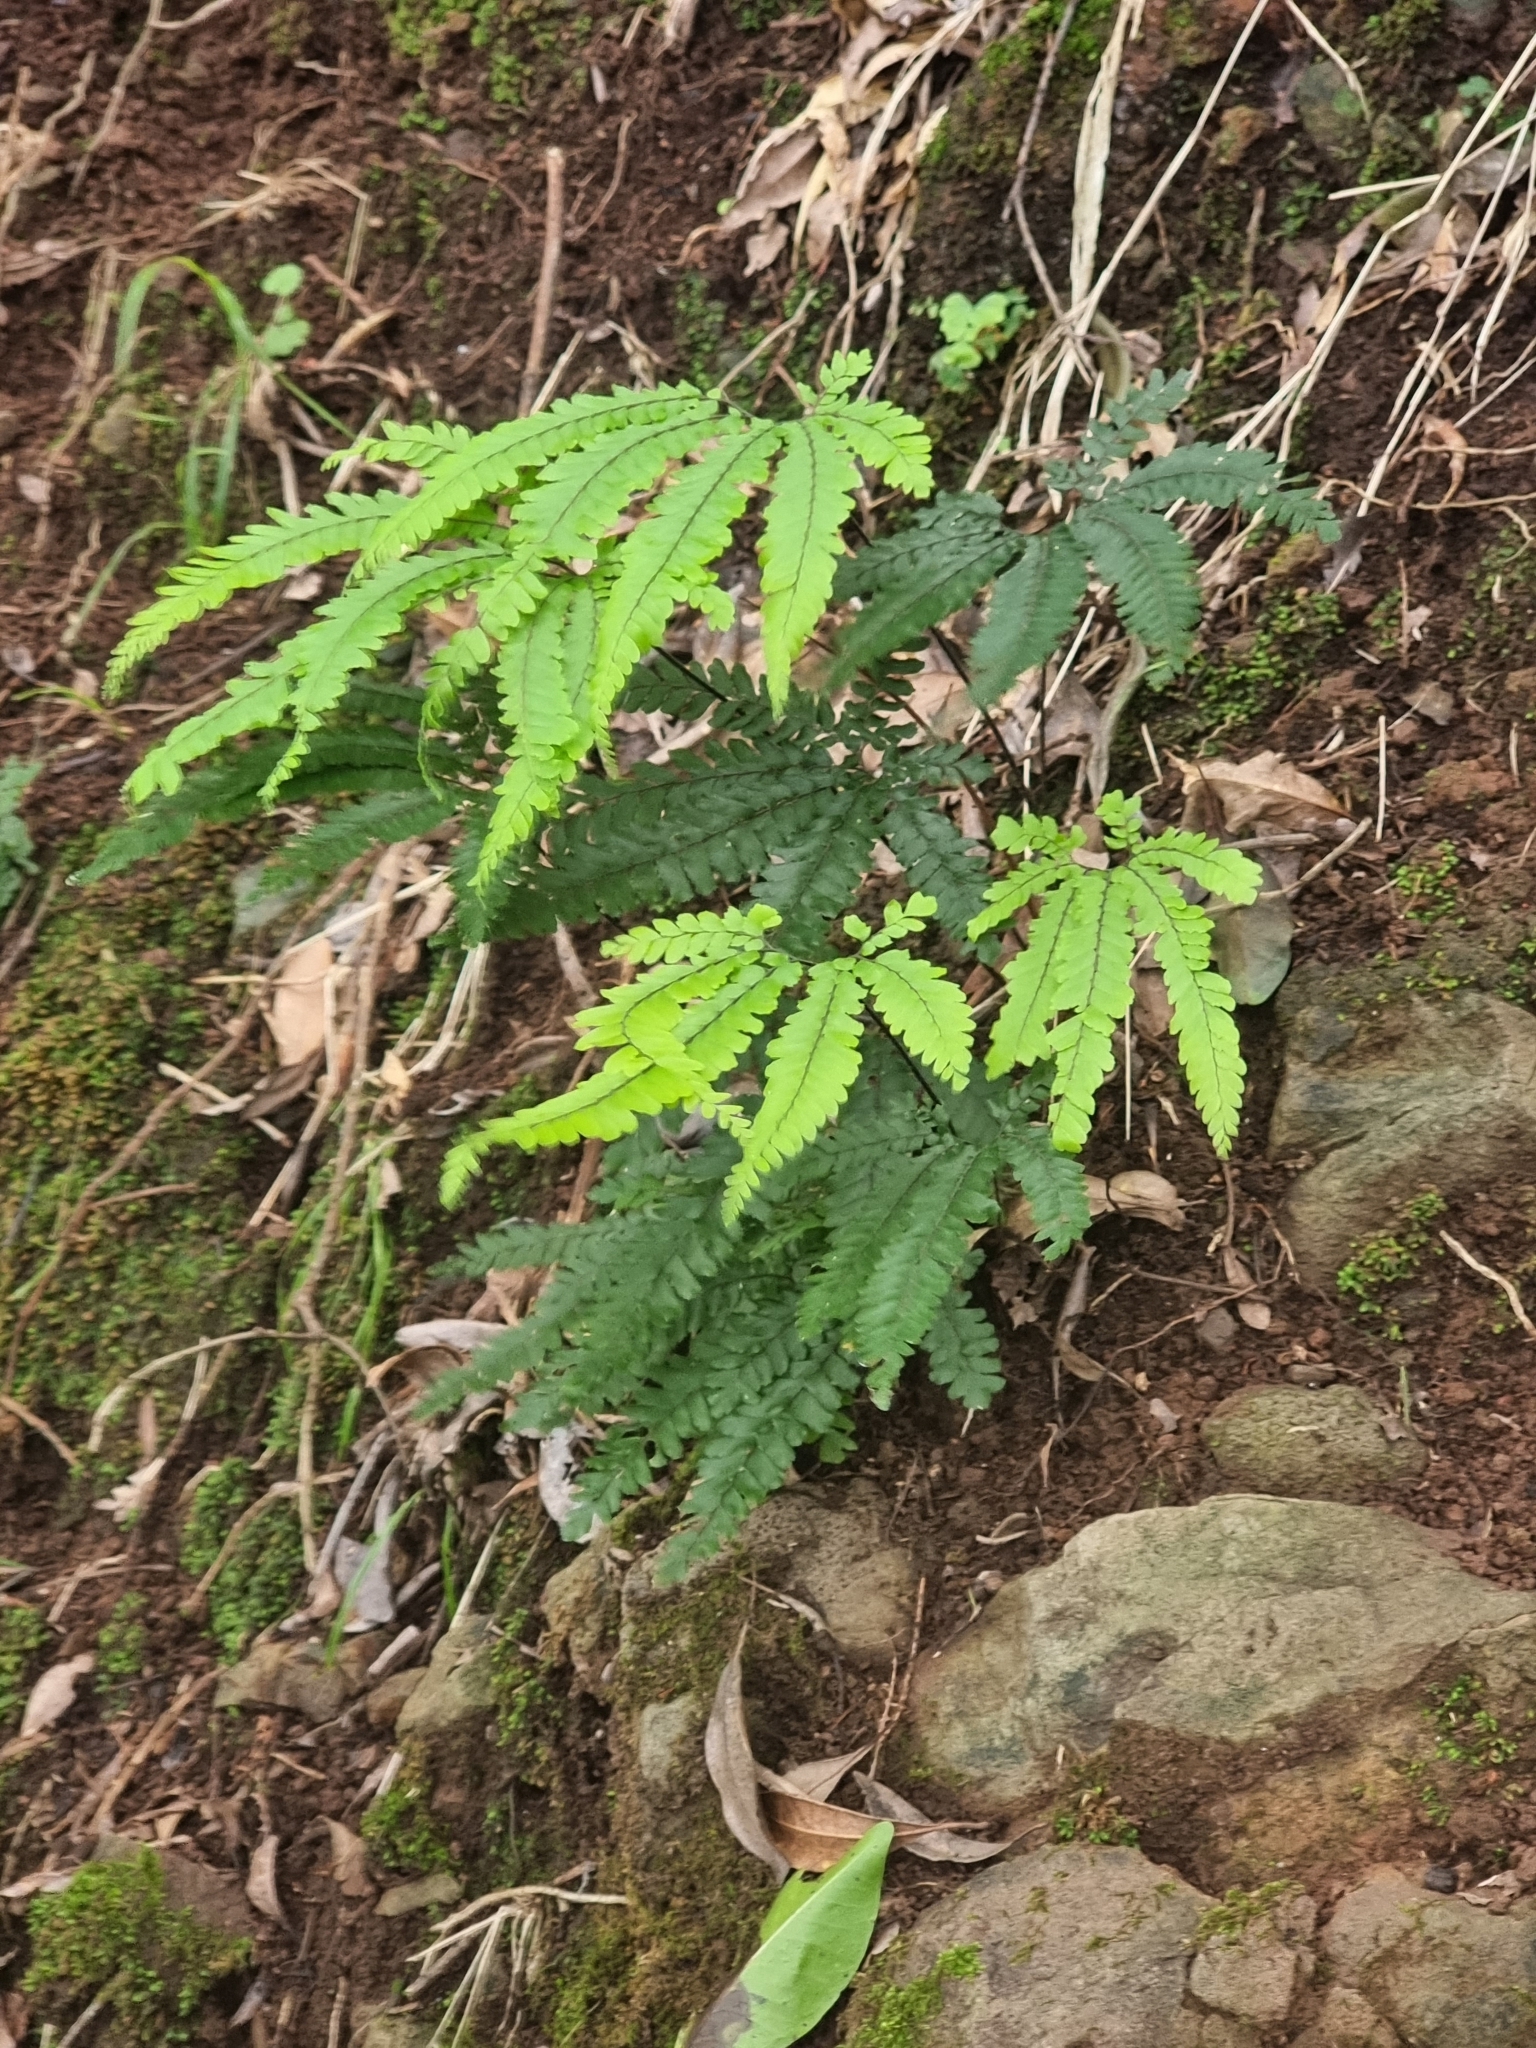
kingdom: Plantae
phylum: Tracheophyta
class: Polypodiopsida
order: Polypodiales
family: Pteridaceae
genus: Adiantum
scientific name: Adiantum hispidulum
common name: Rough maidenhair
